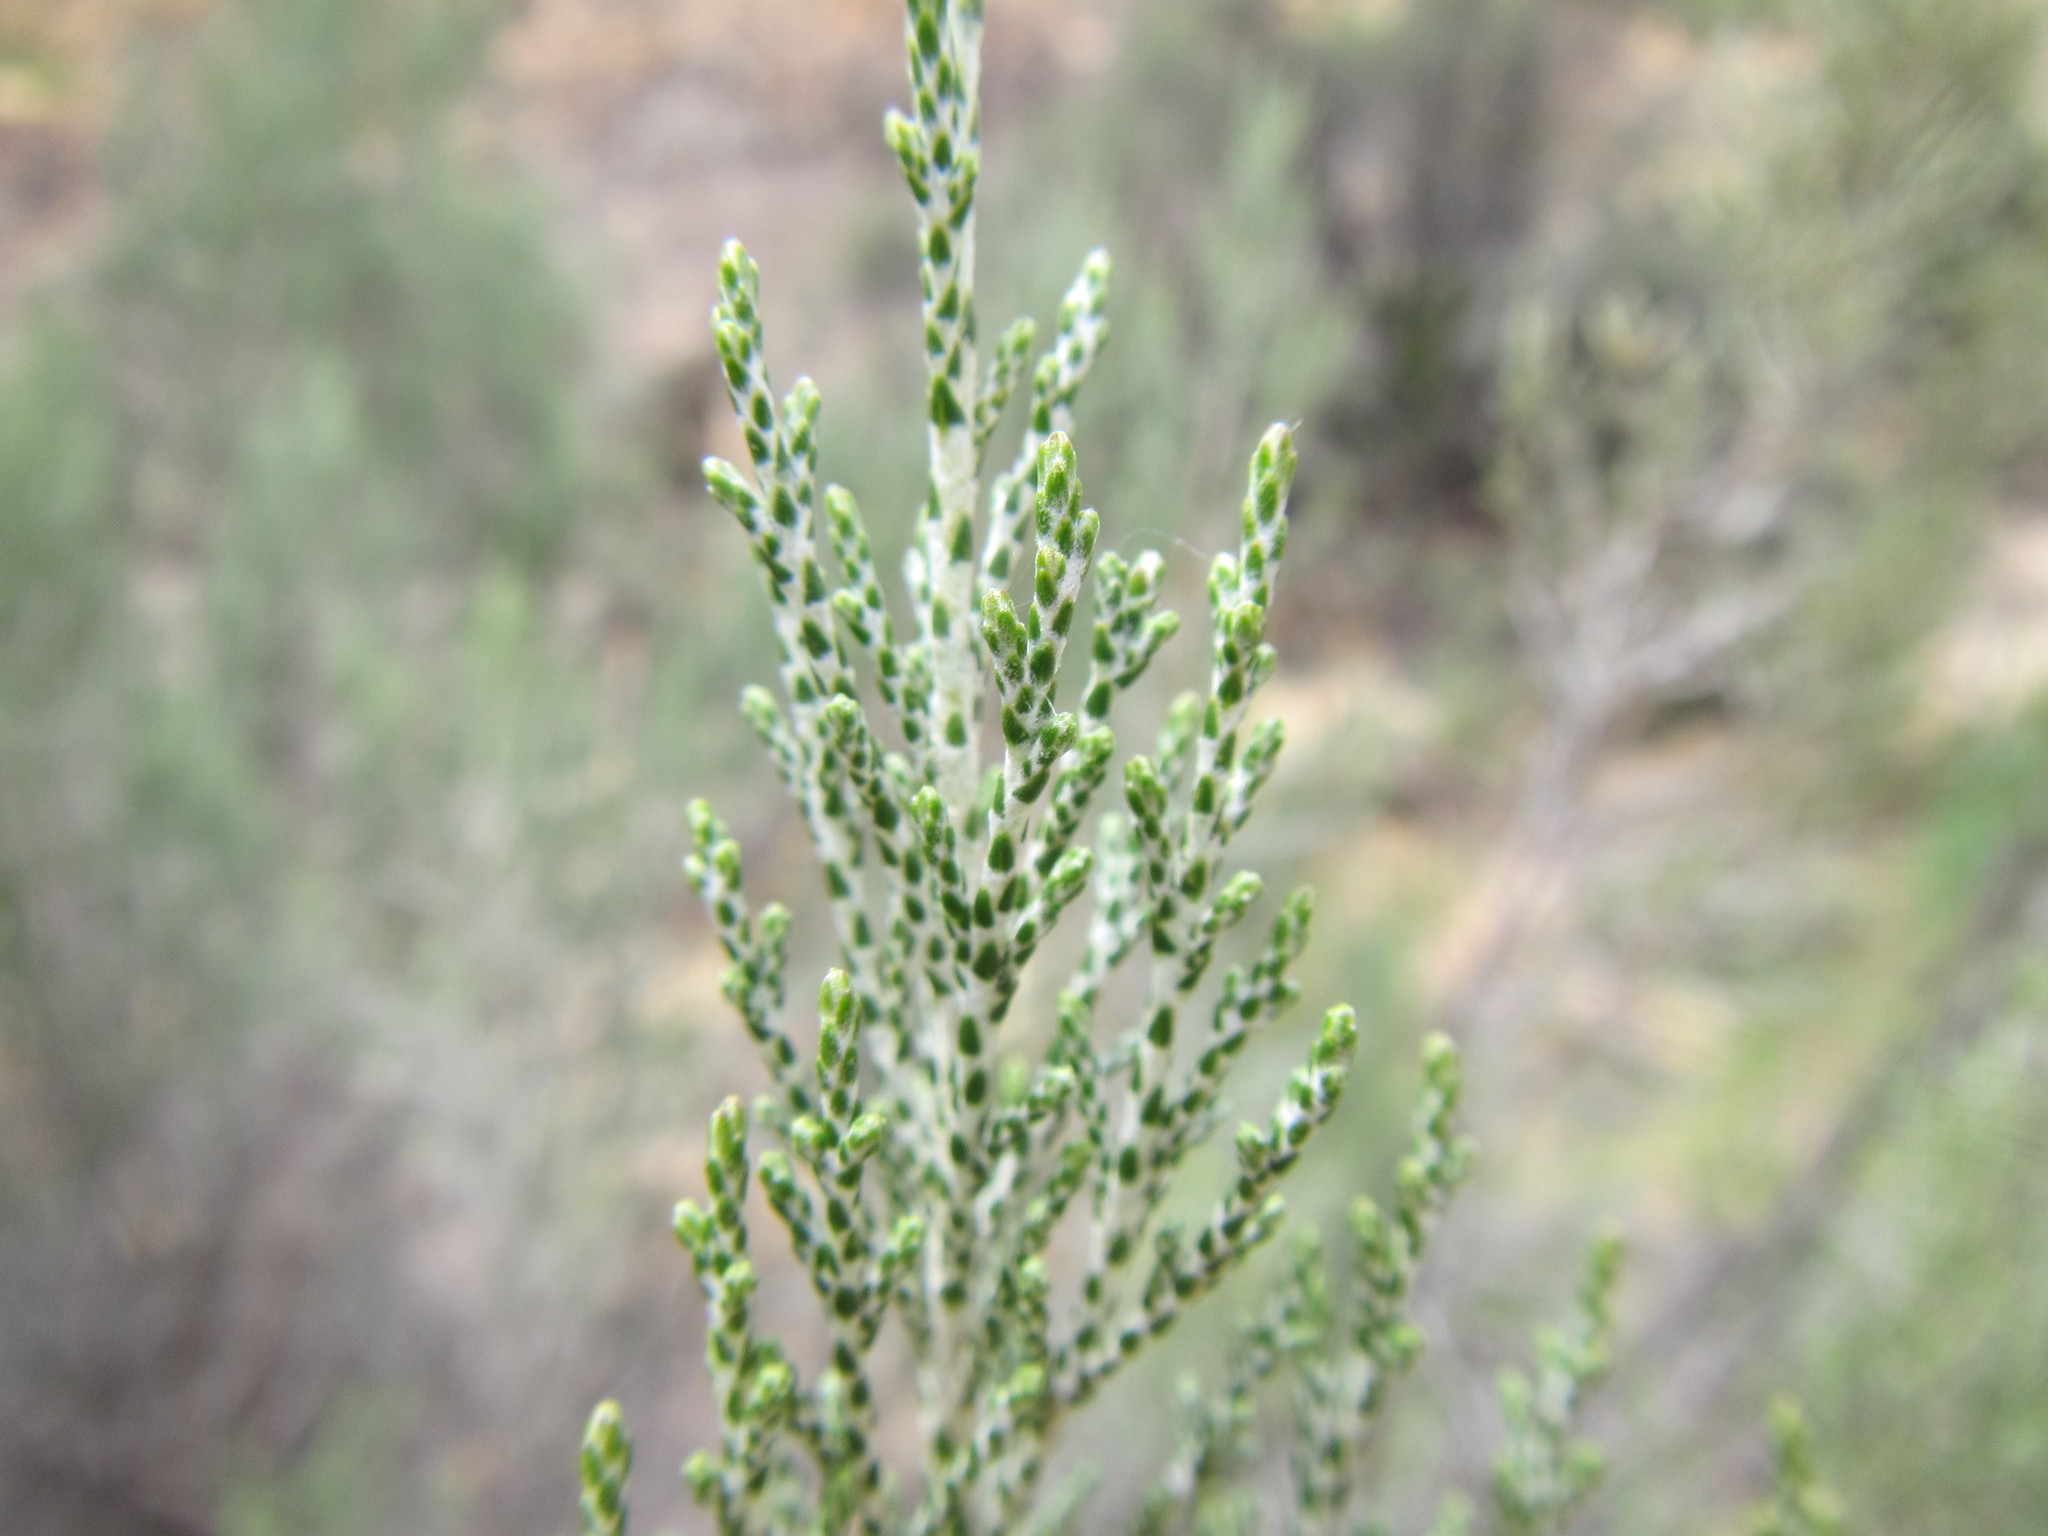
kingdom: Plantae
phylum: Tracheophyta
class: Magnoliopsida
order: Asterales
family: Asteraceae
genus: Dicerothamnus
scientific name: Dicerothamnus rhinocerotis
